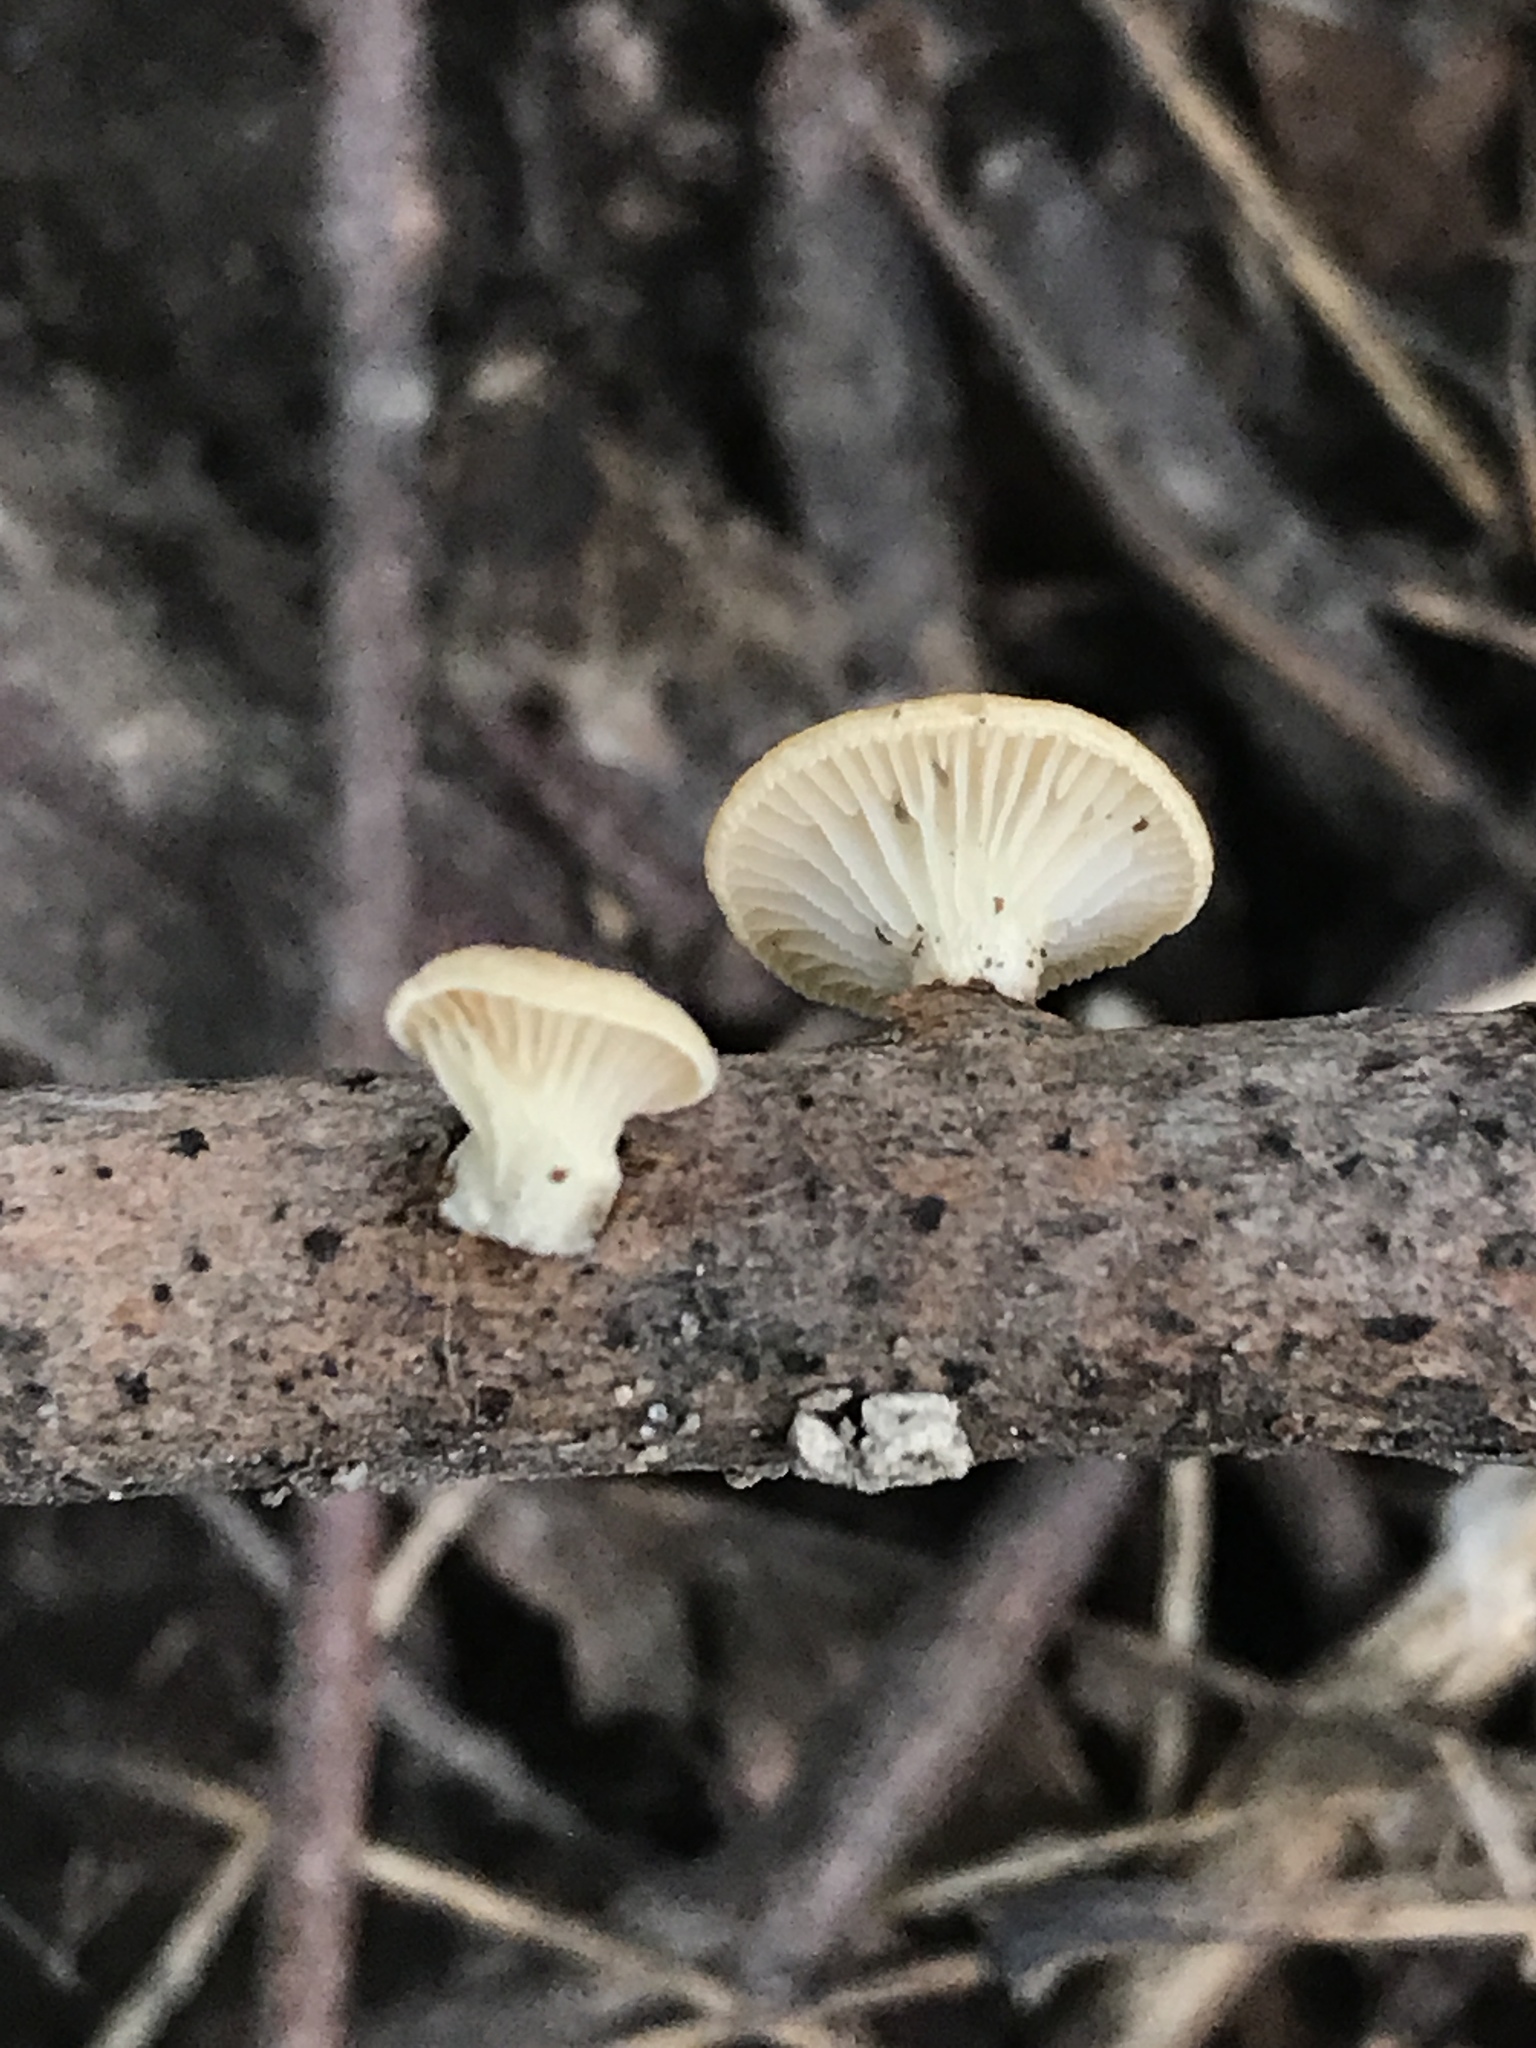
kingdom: Fungi
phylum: Basidiomycota
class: Agaricomycetes
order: Polyporales
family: Polyporaceae
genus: Neofavolus
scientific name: Neofavolus suavissimus
